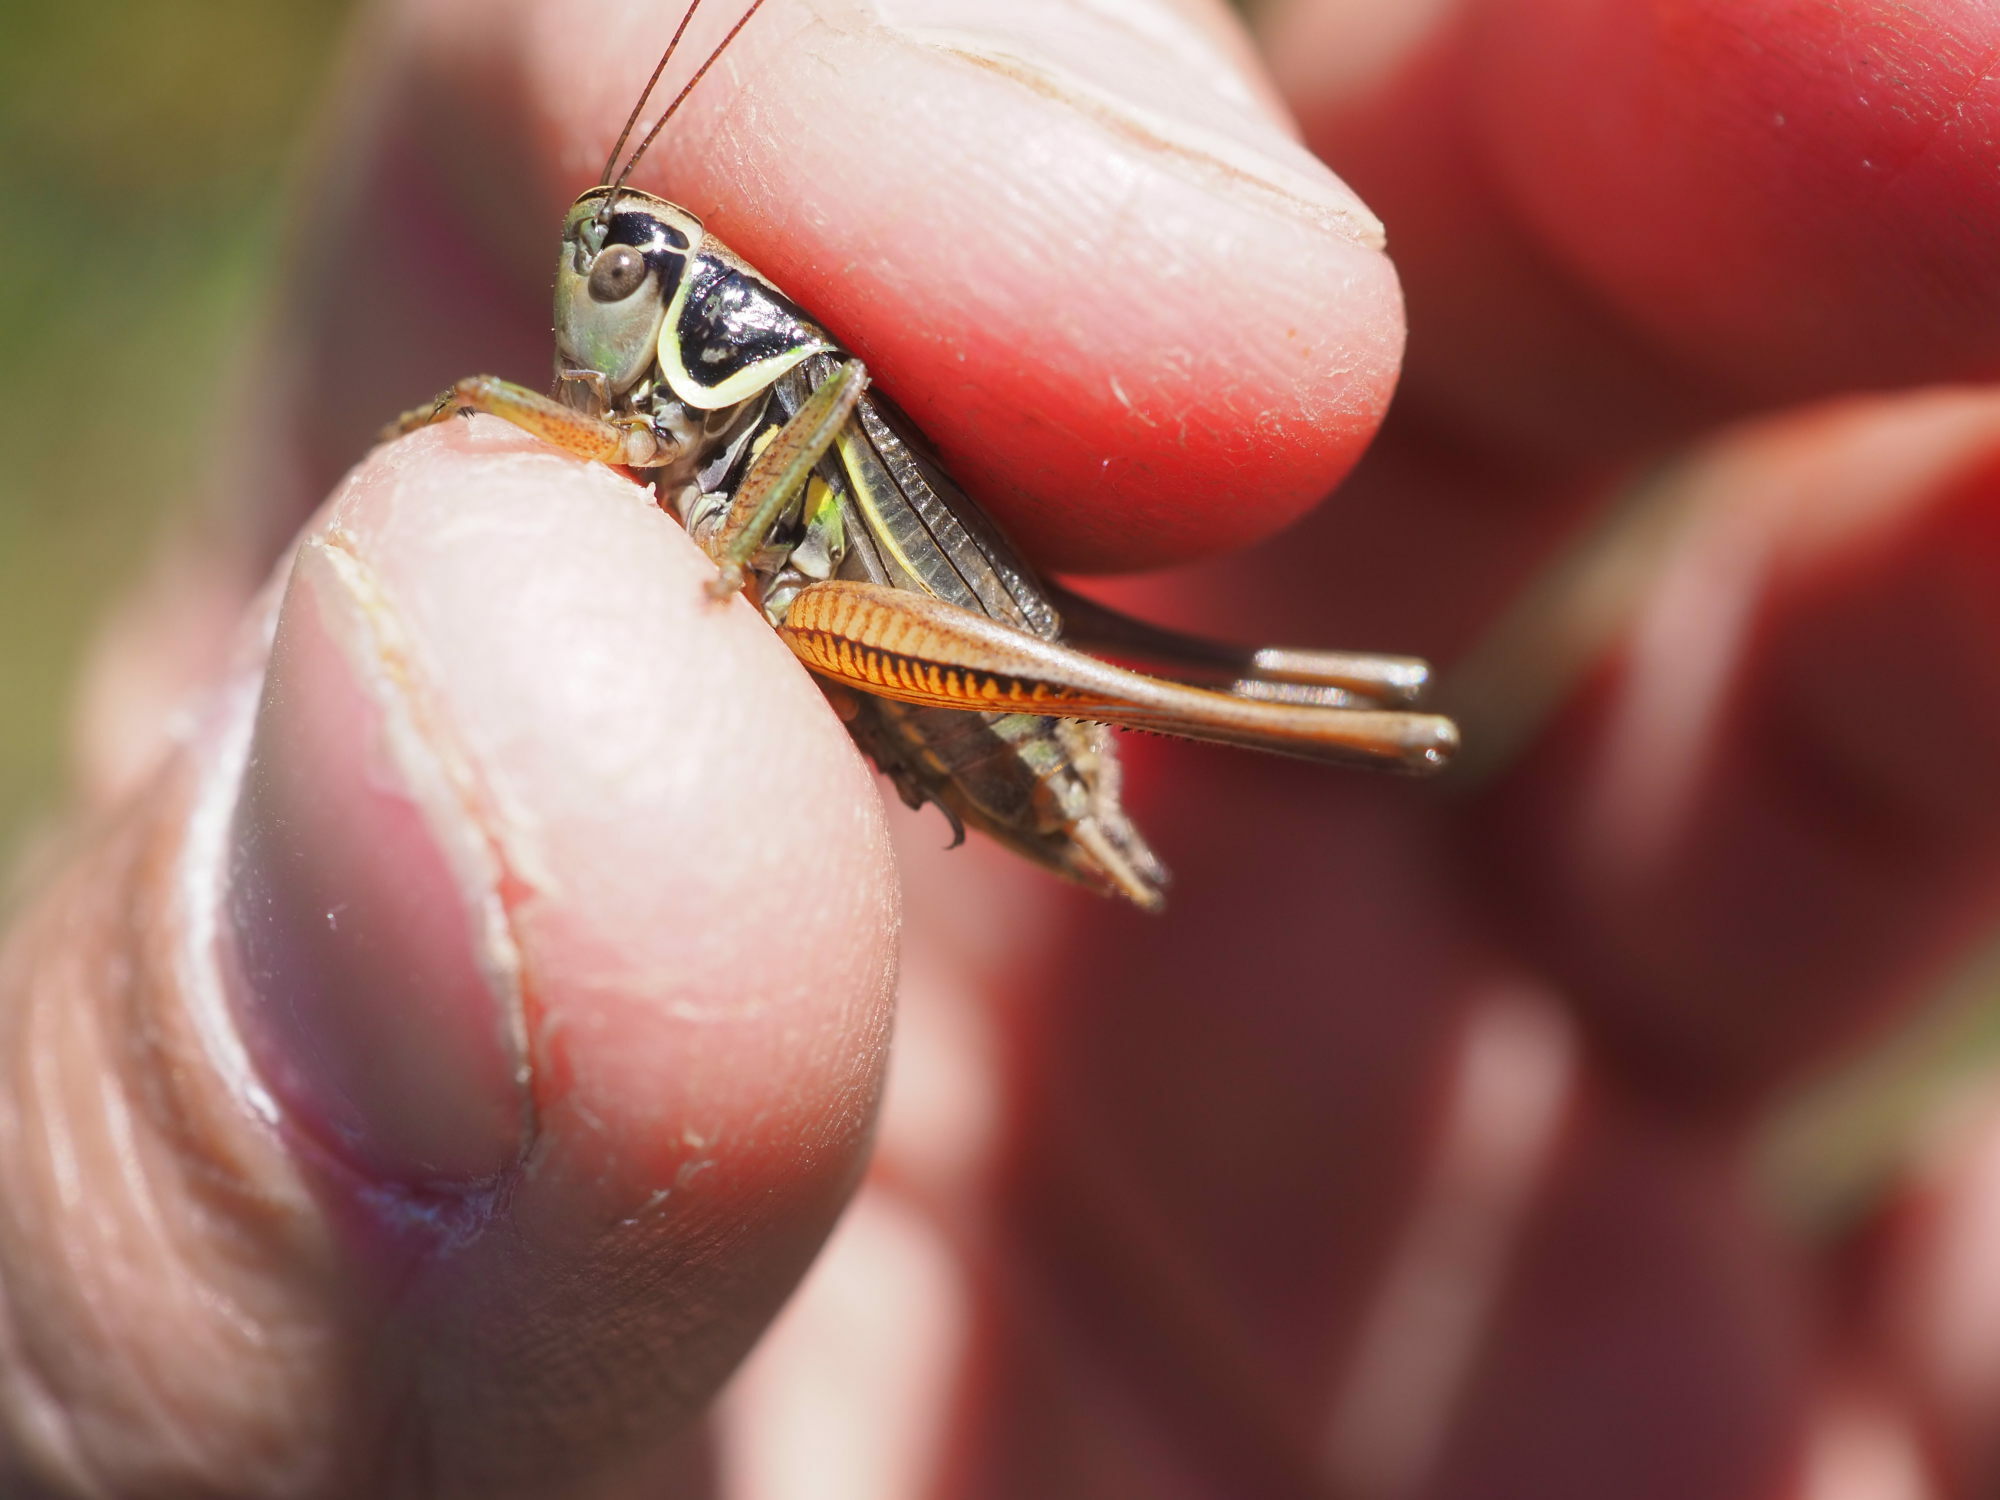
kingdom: Animalia
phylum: Arthropoda
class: Insecta
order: Orthoptera
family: Tettigoniidae
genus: Roeseliana
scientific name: Roeseliana roeselii
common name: Roesel's bush cricket
